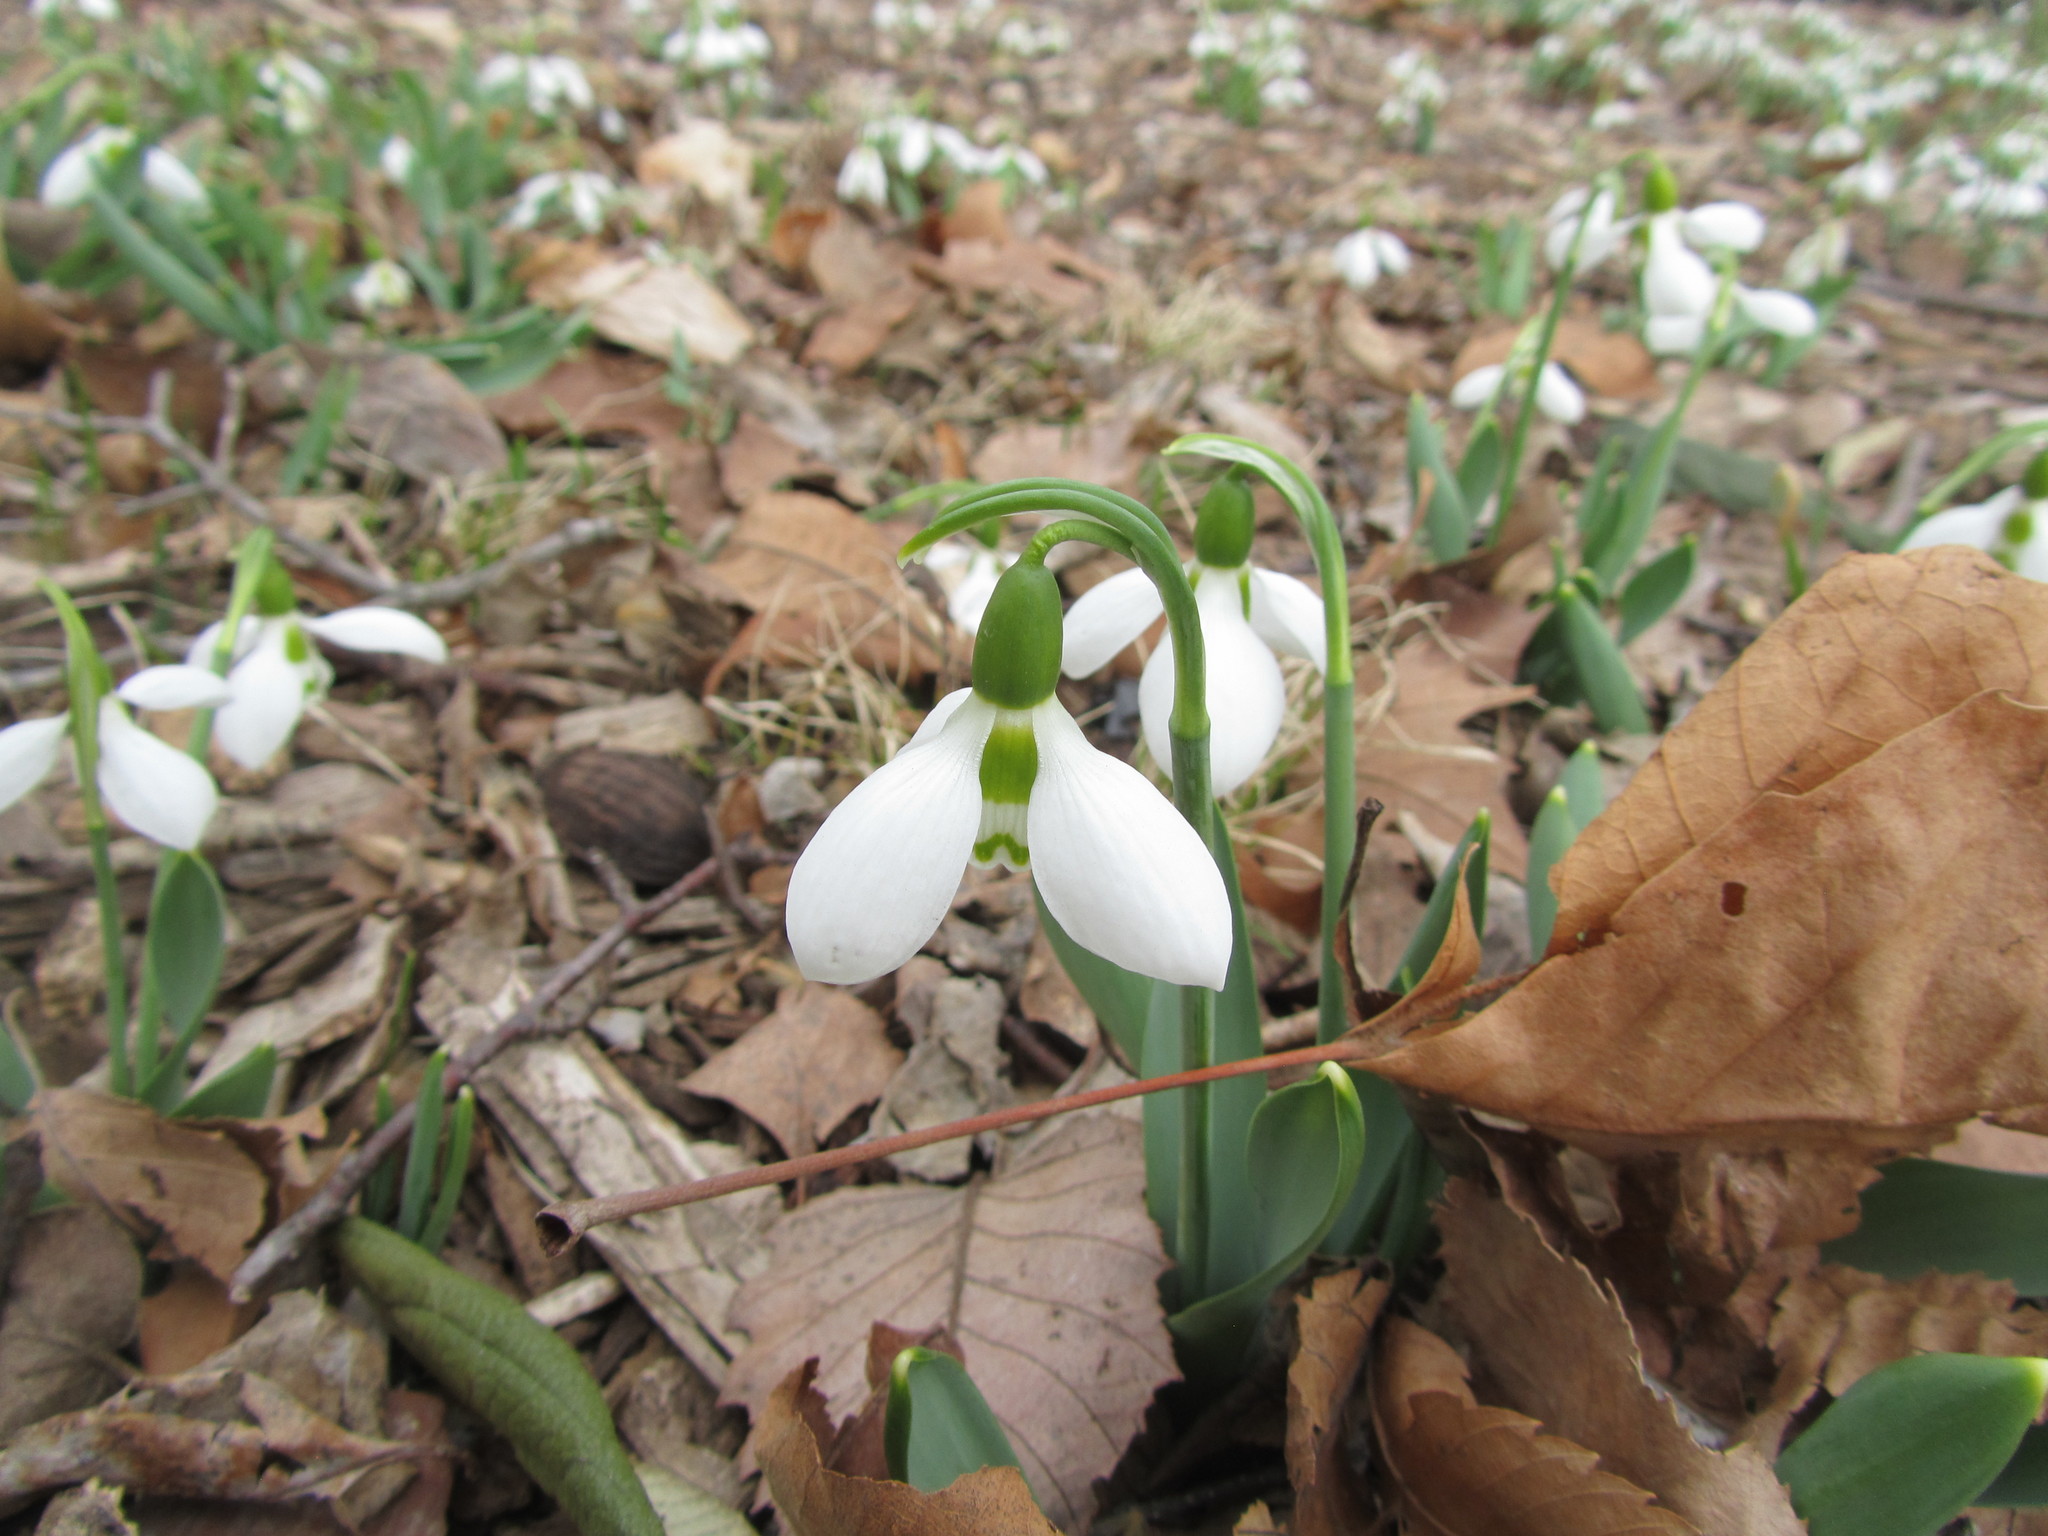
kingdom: Plantae
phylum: Tracheophyta
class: Liliopsida
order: Asparagales
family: Amaryllidaceae
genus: Galanthus
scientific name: Galanthus elwesii
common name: Greater snowdrop
